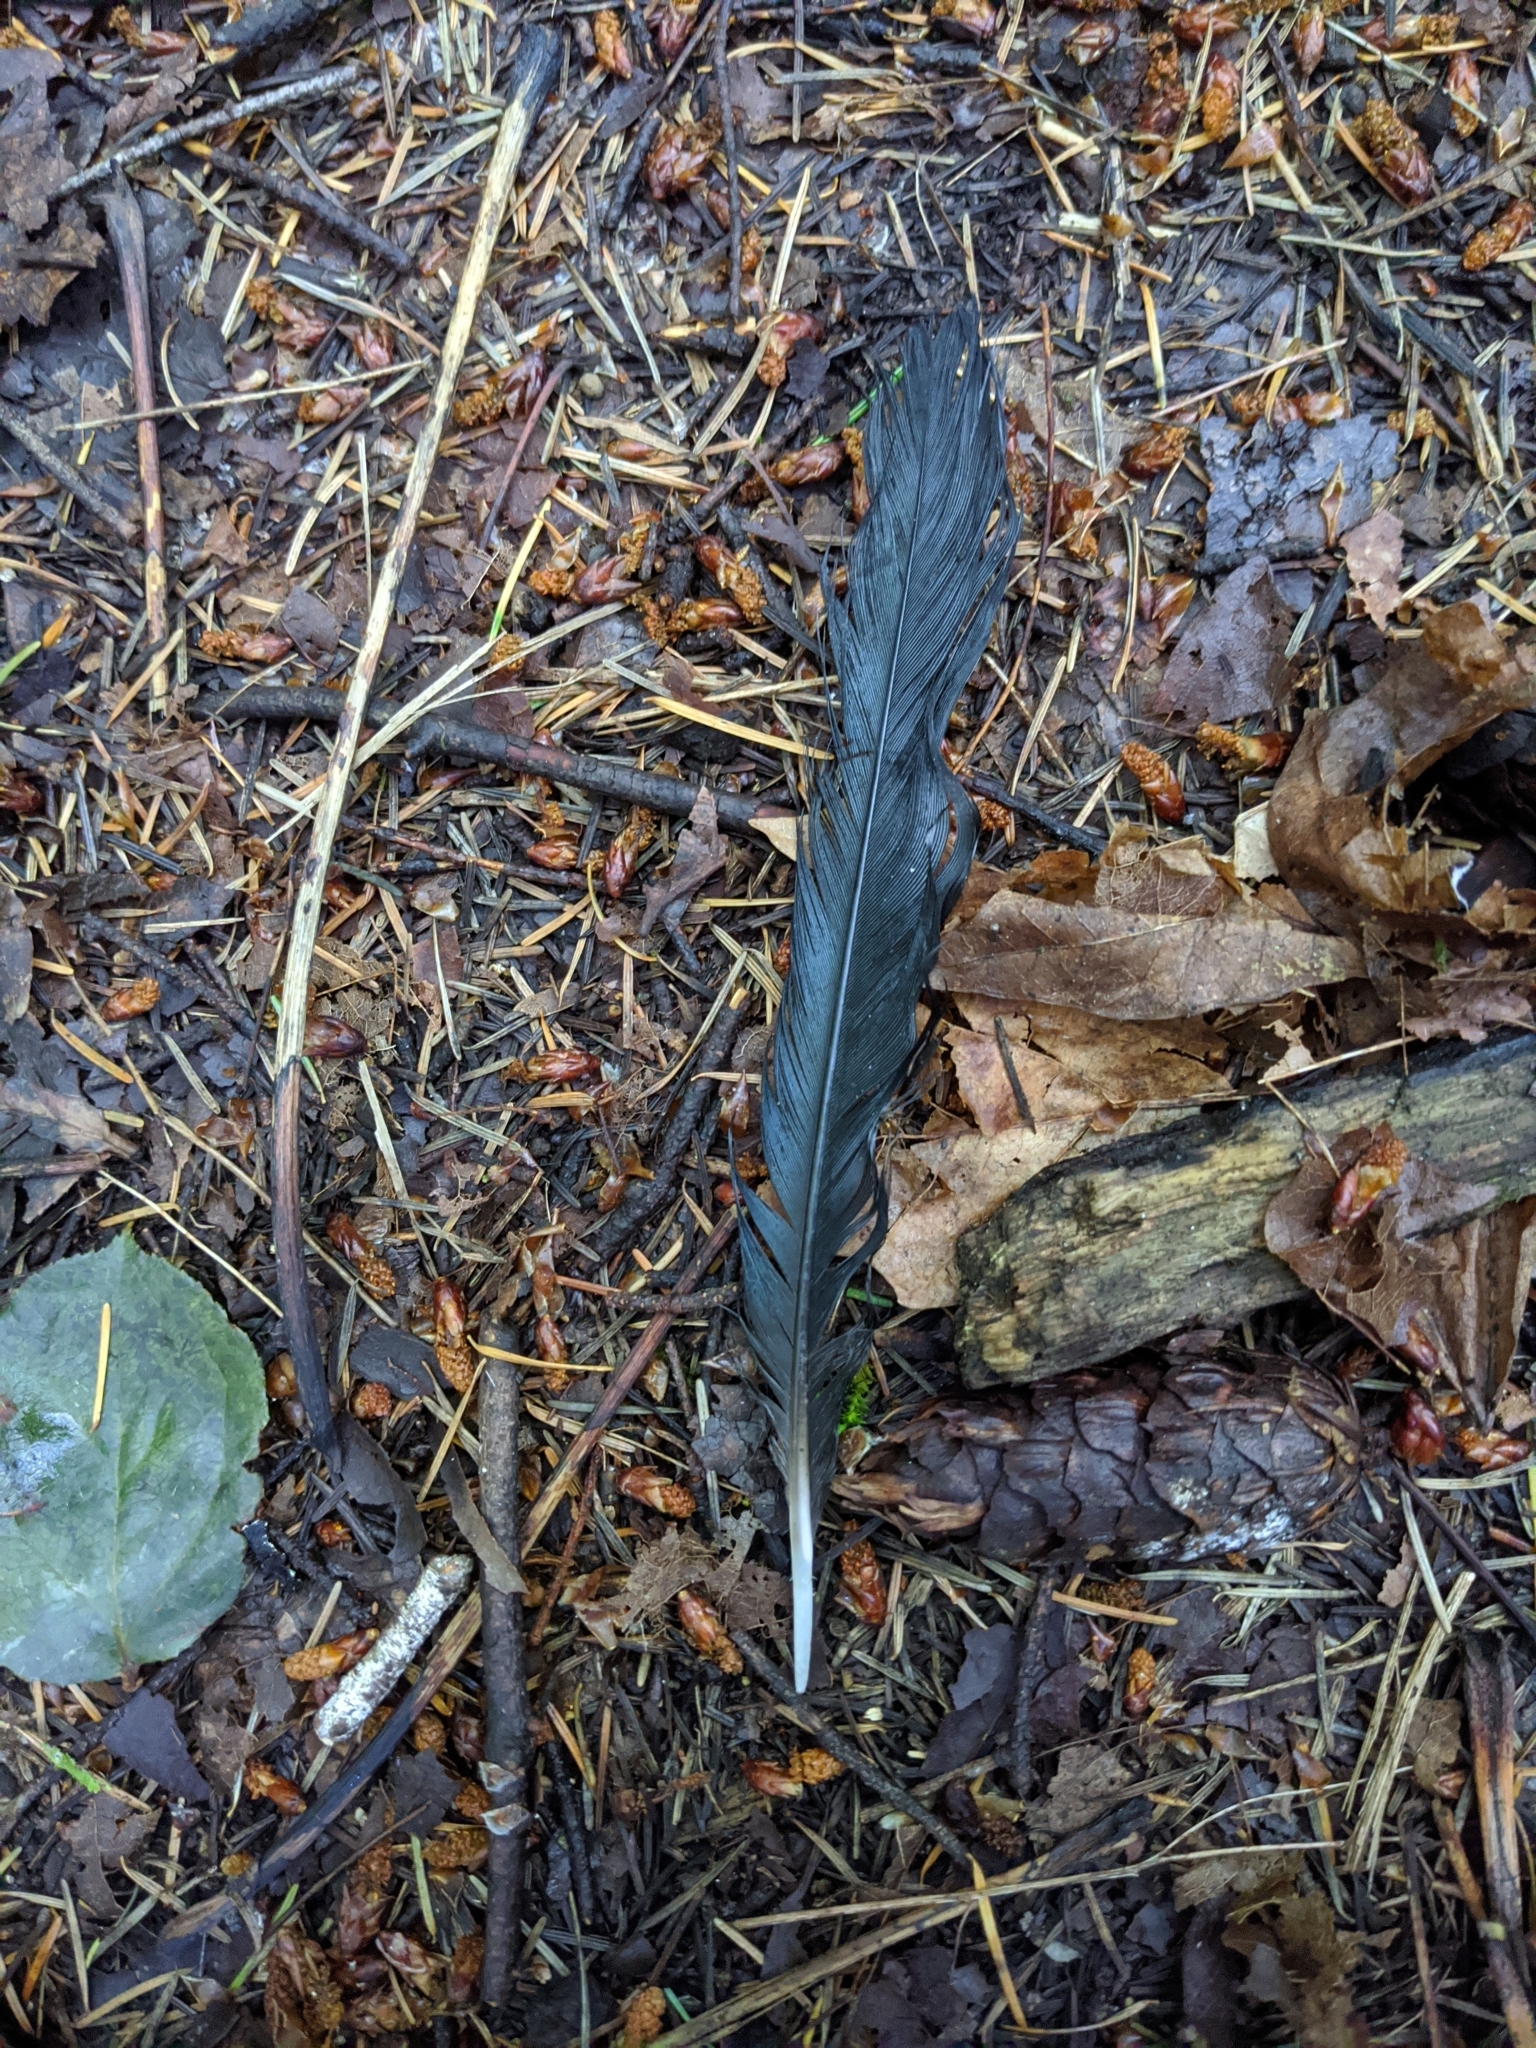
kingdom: Animalia
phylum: Chordata
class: Aves
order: Passeriformes
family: Corvidae
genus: Corvus
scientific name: Corvus brachyrhynchos
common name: American crow
